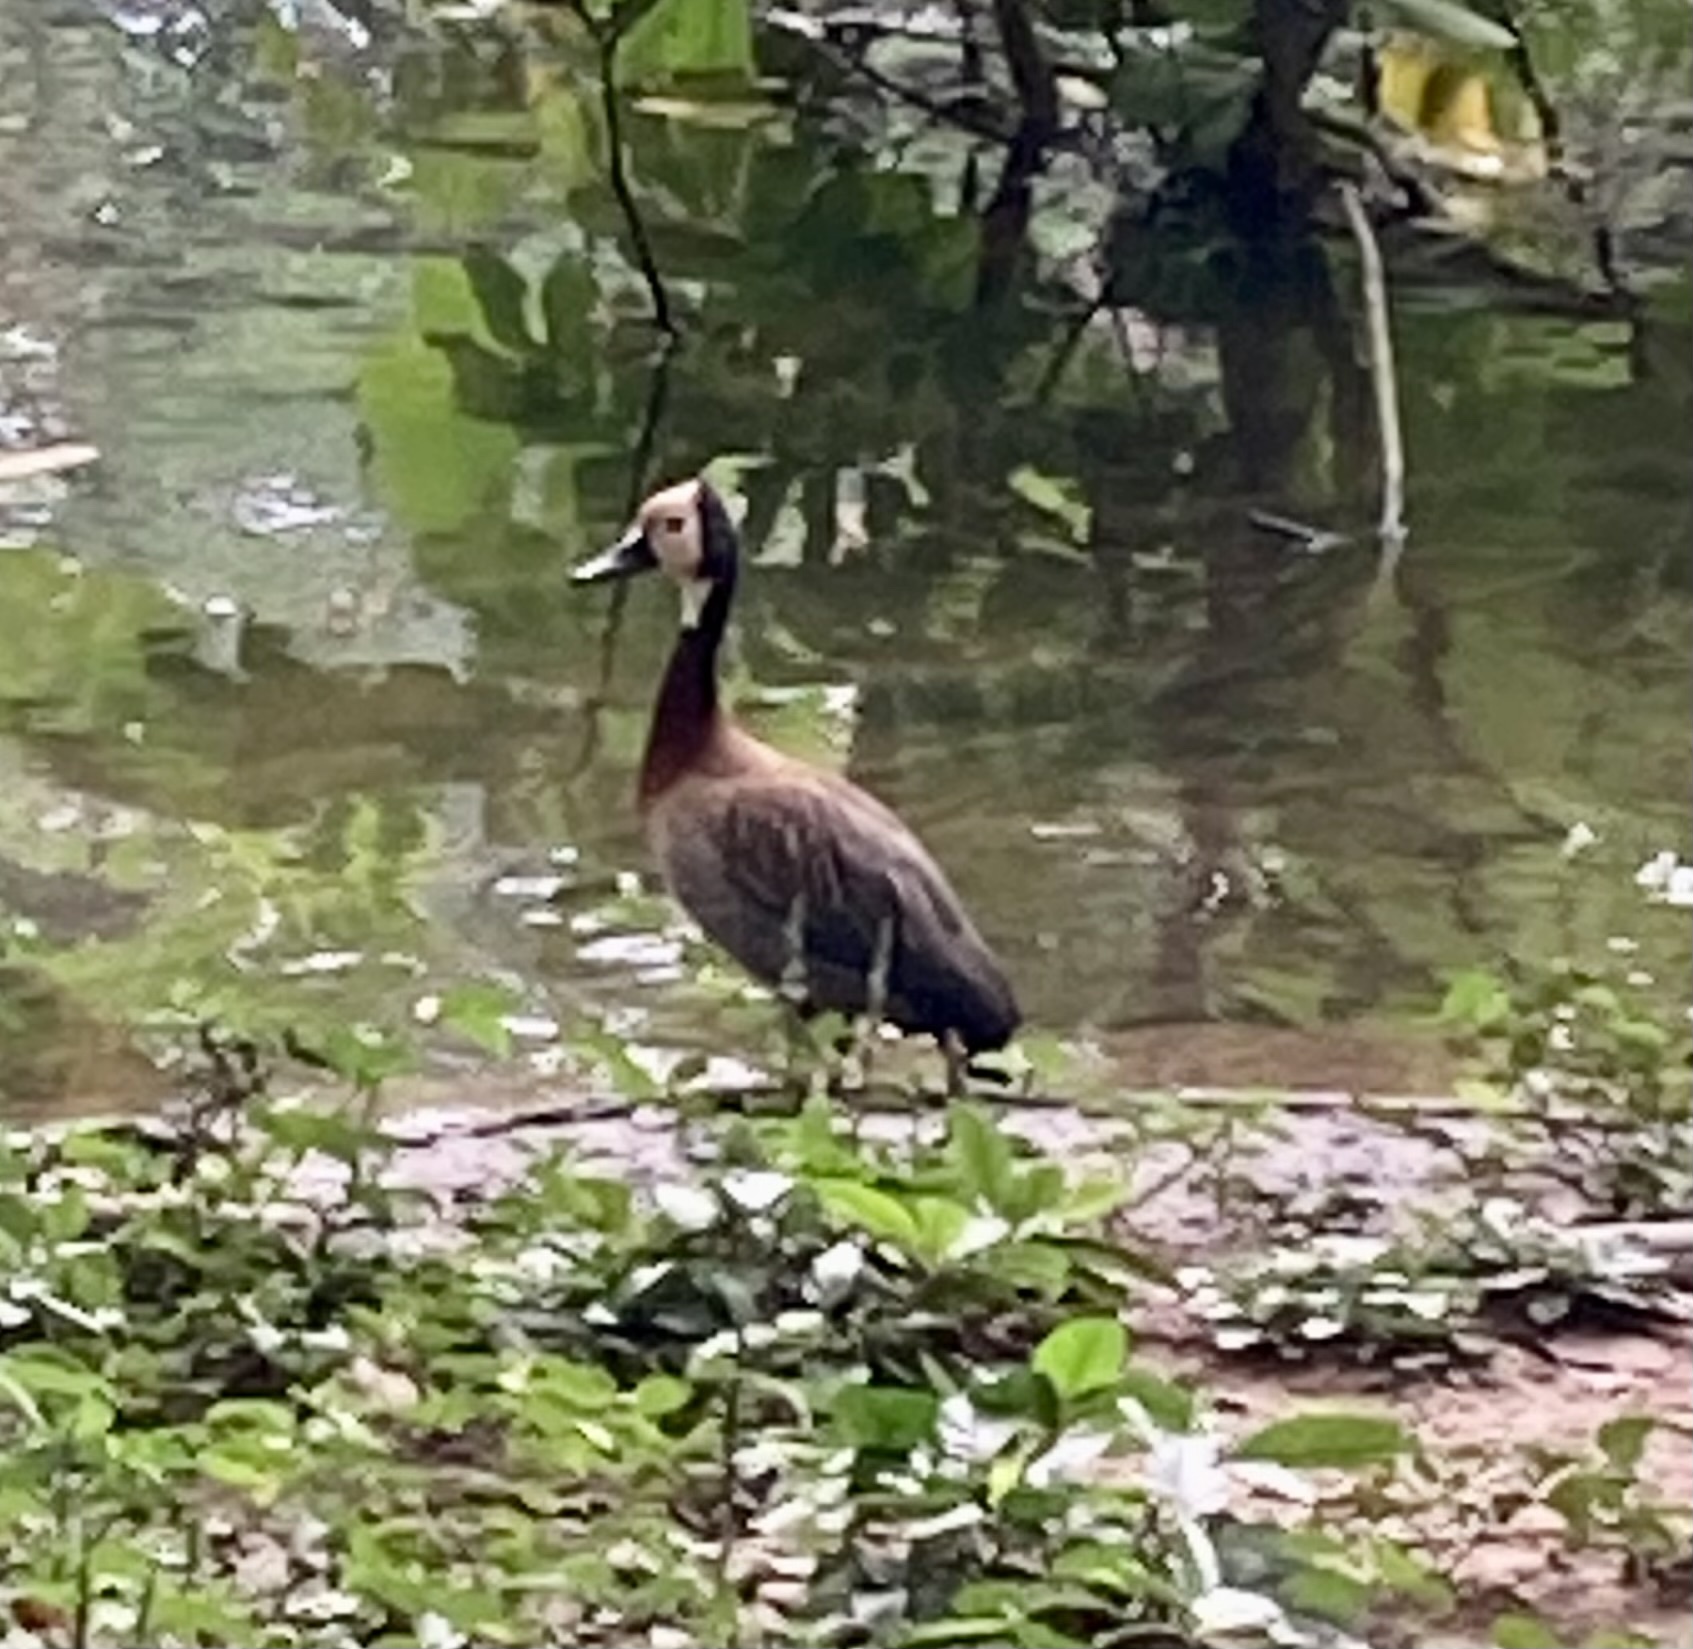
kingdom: Animalia
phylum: Chordata
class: Aves
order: Anseriformes
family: Anatidae
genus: Dendrocygna
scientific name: Dendrocygna viduata
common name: White-faced whistling duck
